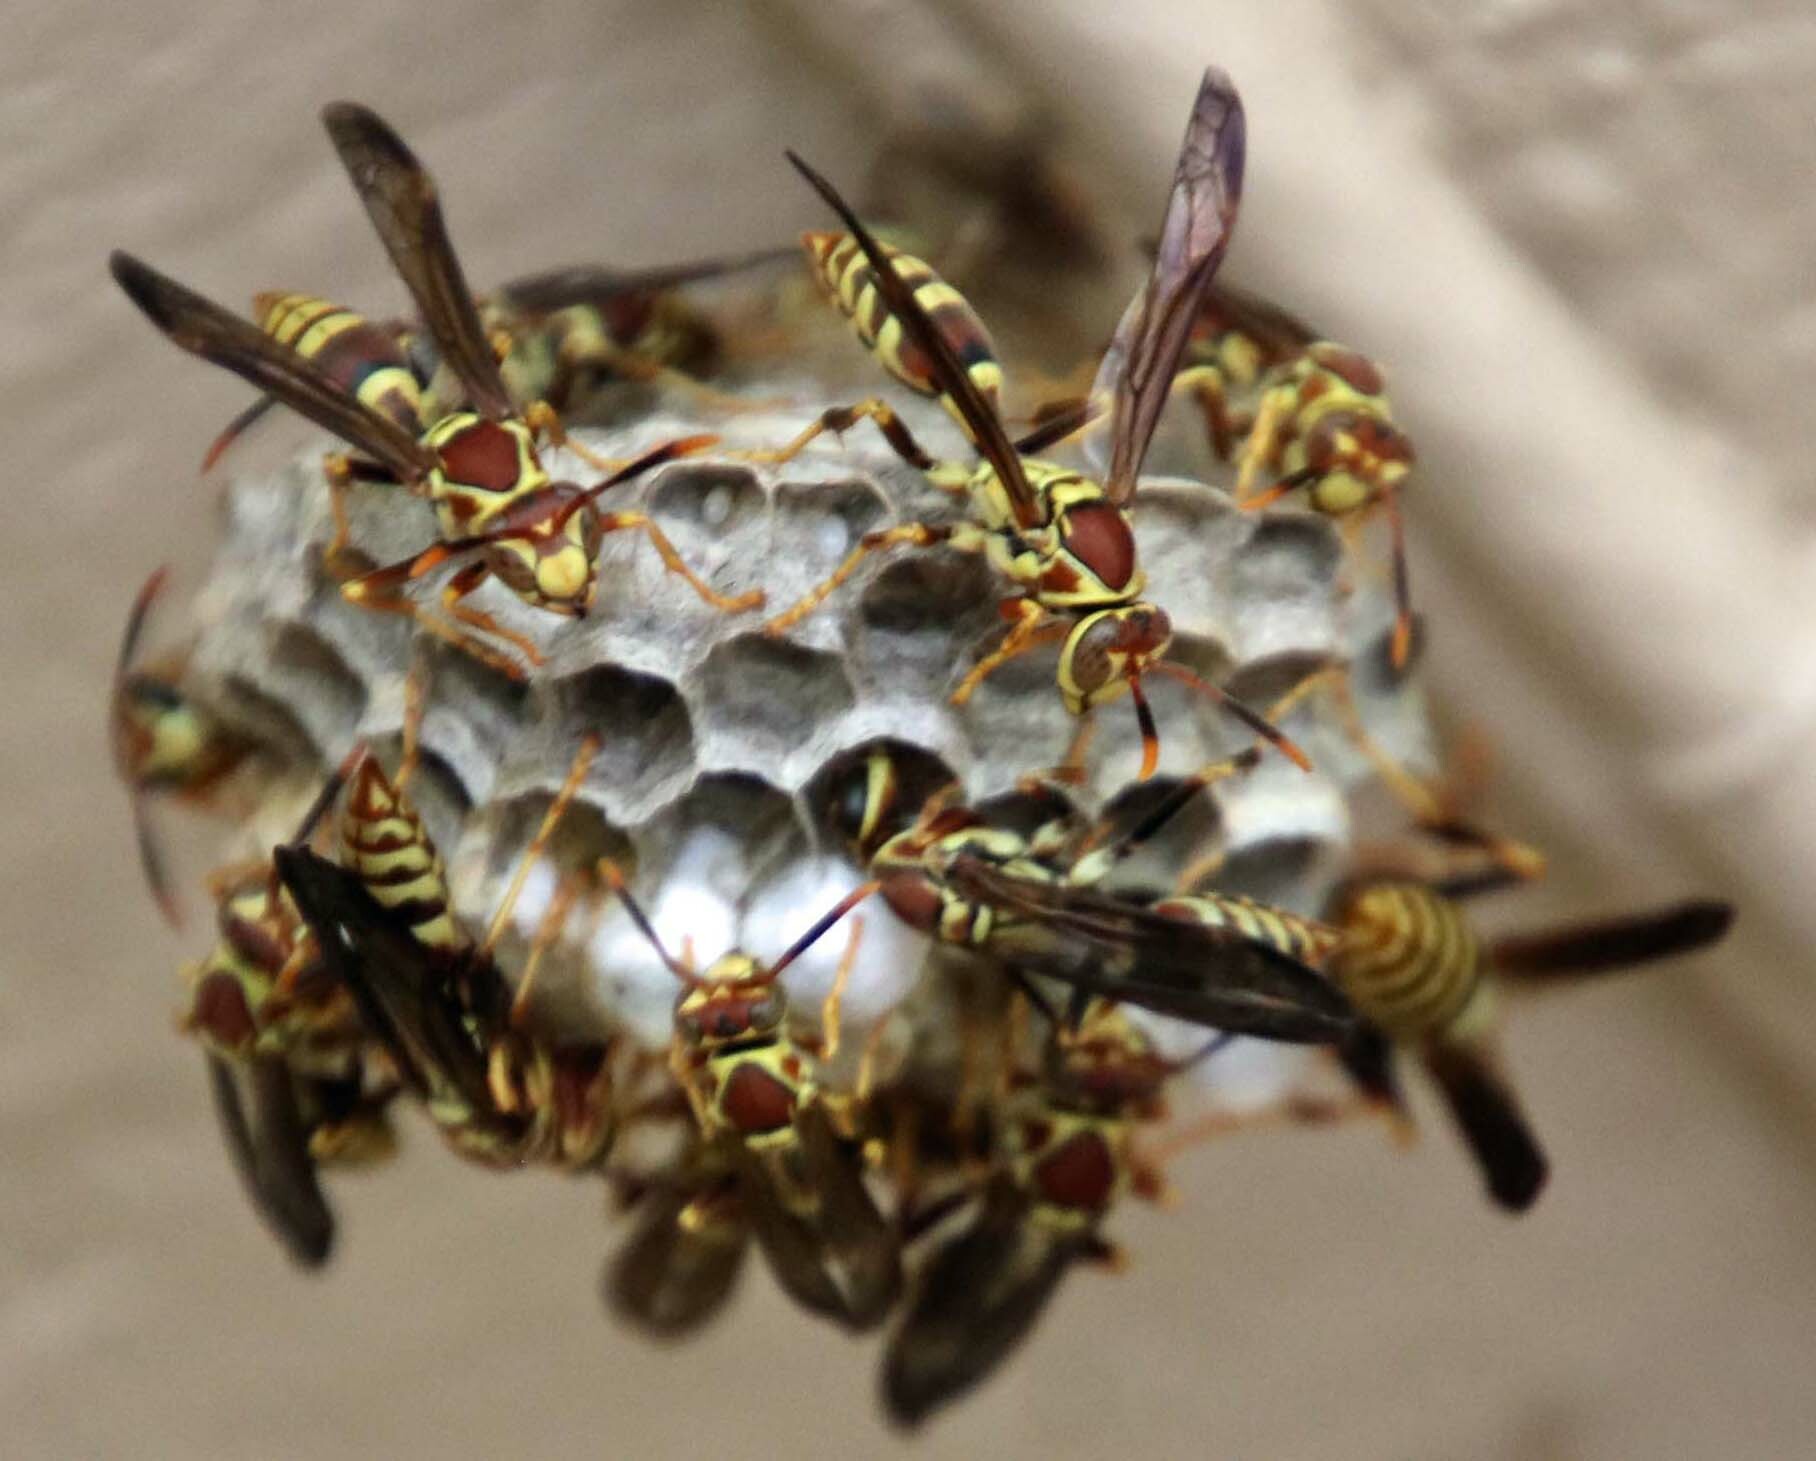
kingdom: Animalia
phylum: Arthropoda
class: Insecta
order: Hymenoptera
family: Eumenidae
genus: Polistes
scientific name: Polistes exclamans
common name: Paper wasp
